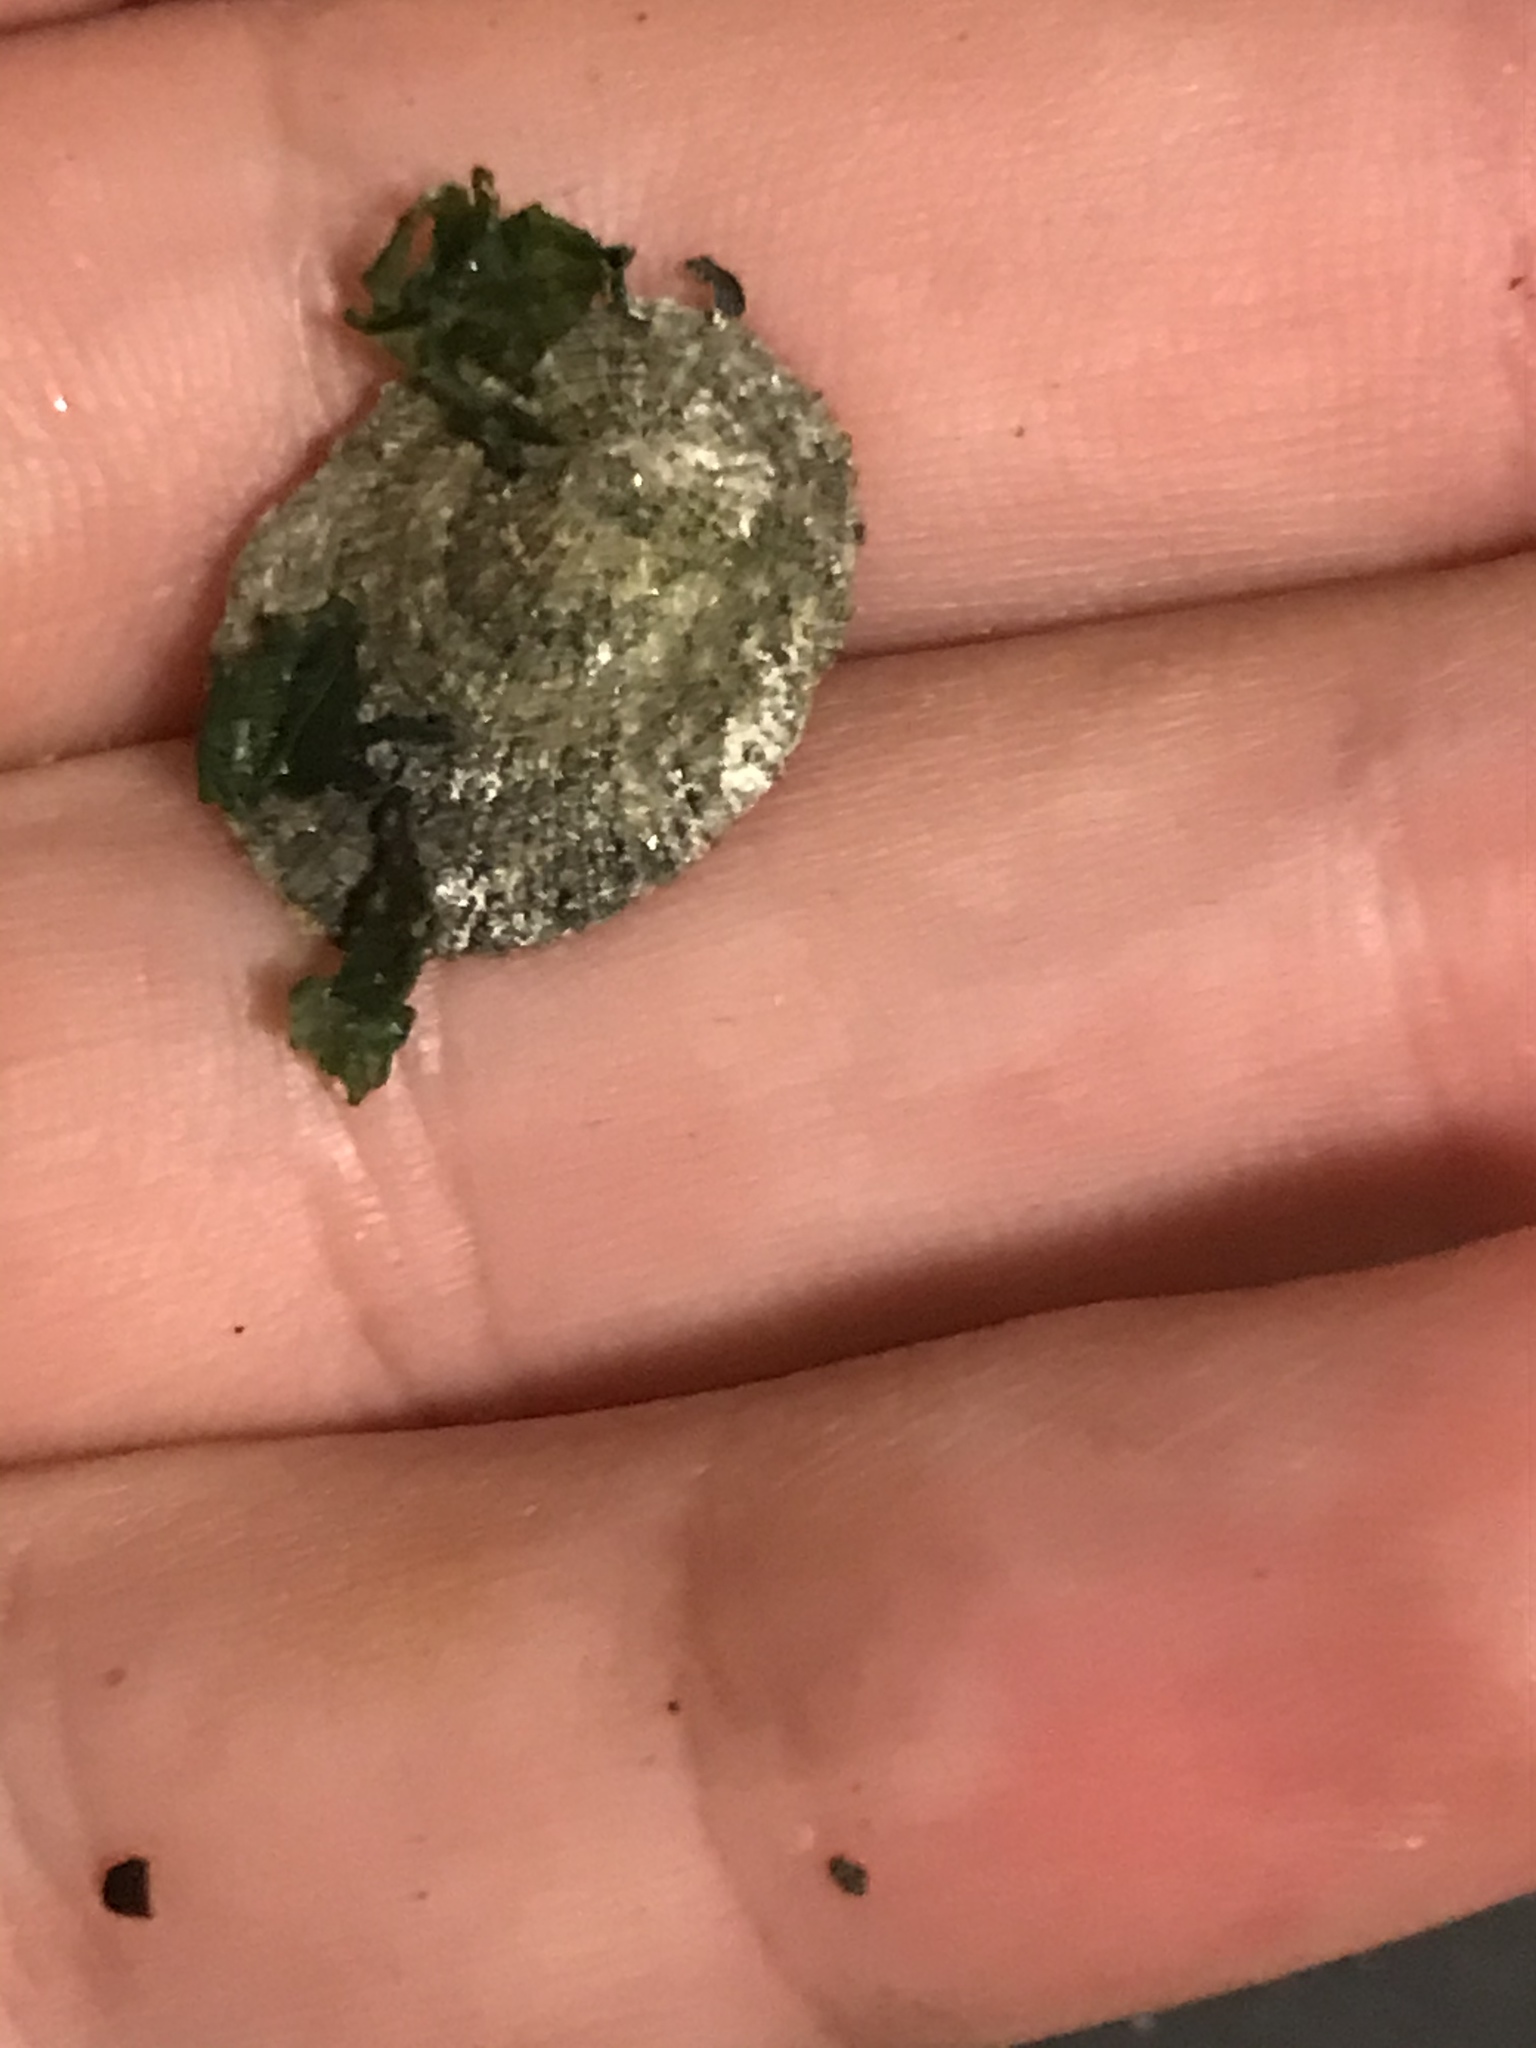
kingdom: Animalia
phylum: Mollusca
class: Gastropoda
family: Lottiidae
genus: Lottia
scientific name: Lottia limatula
